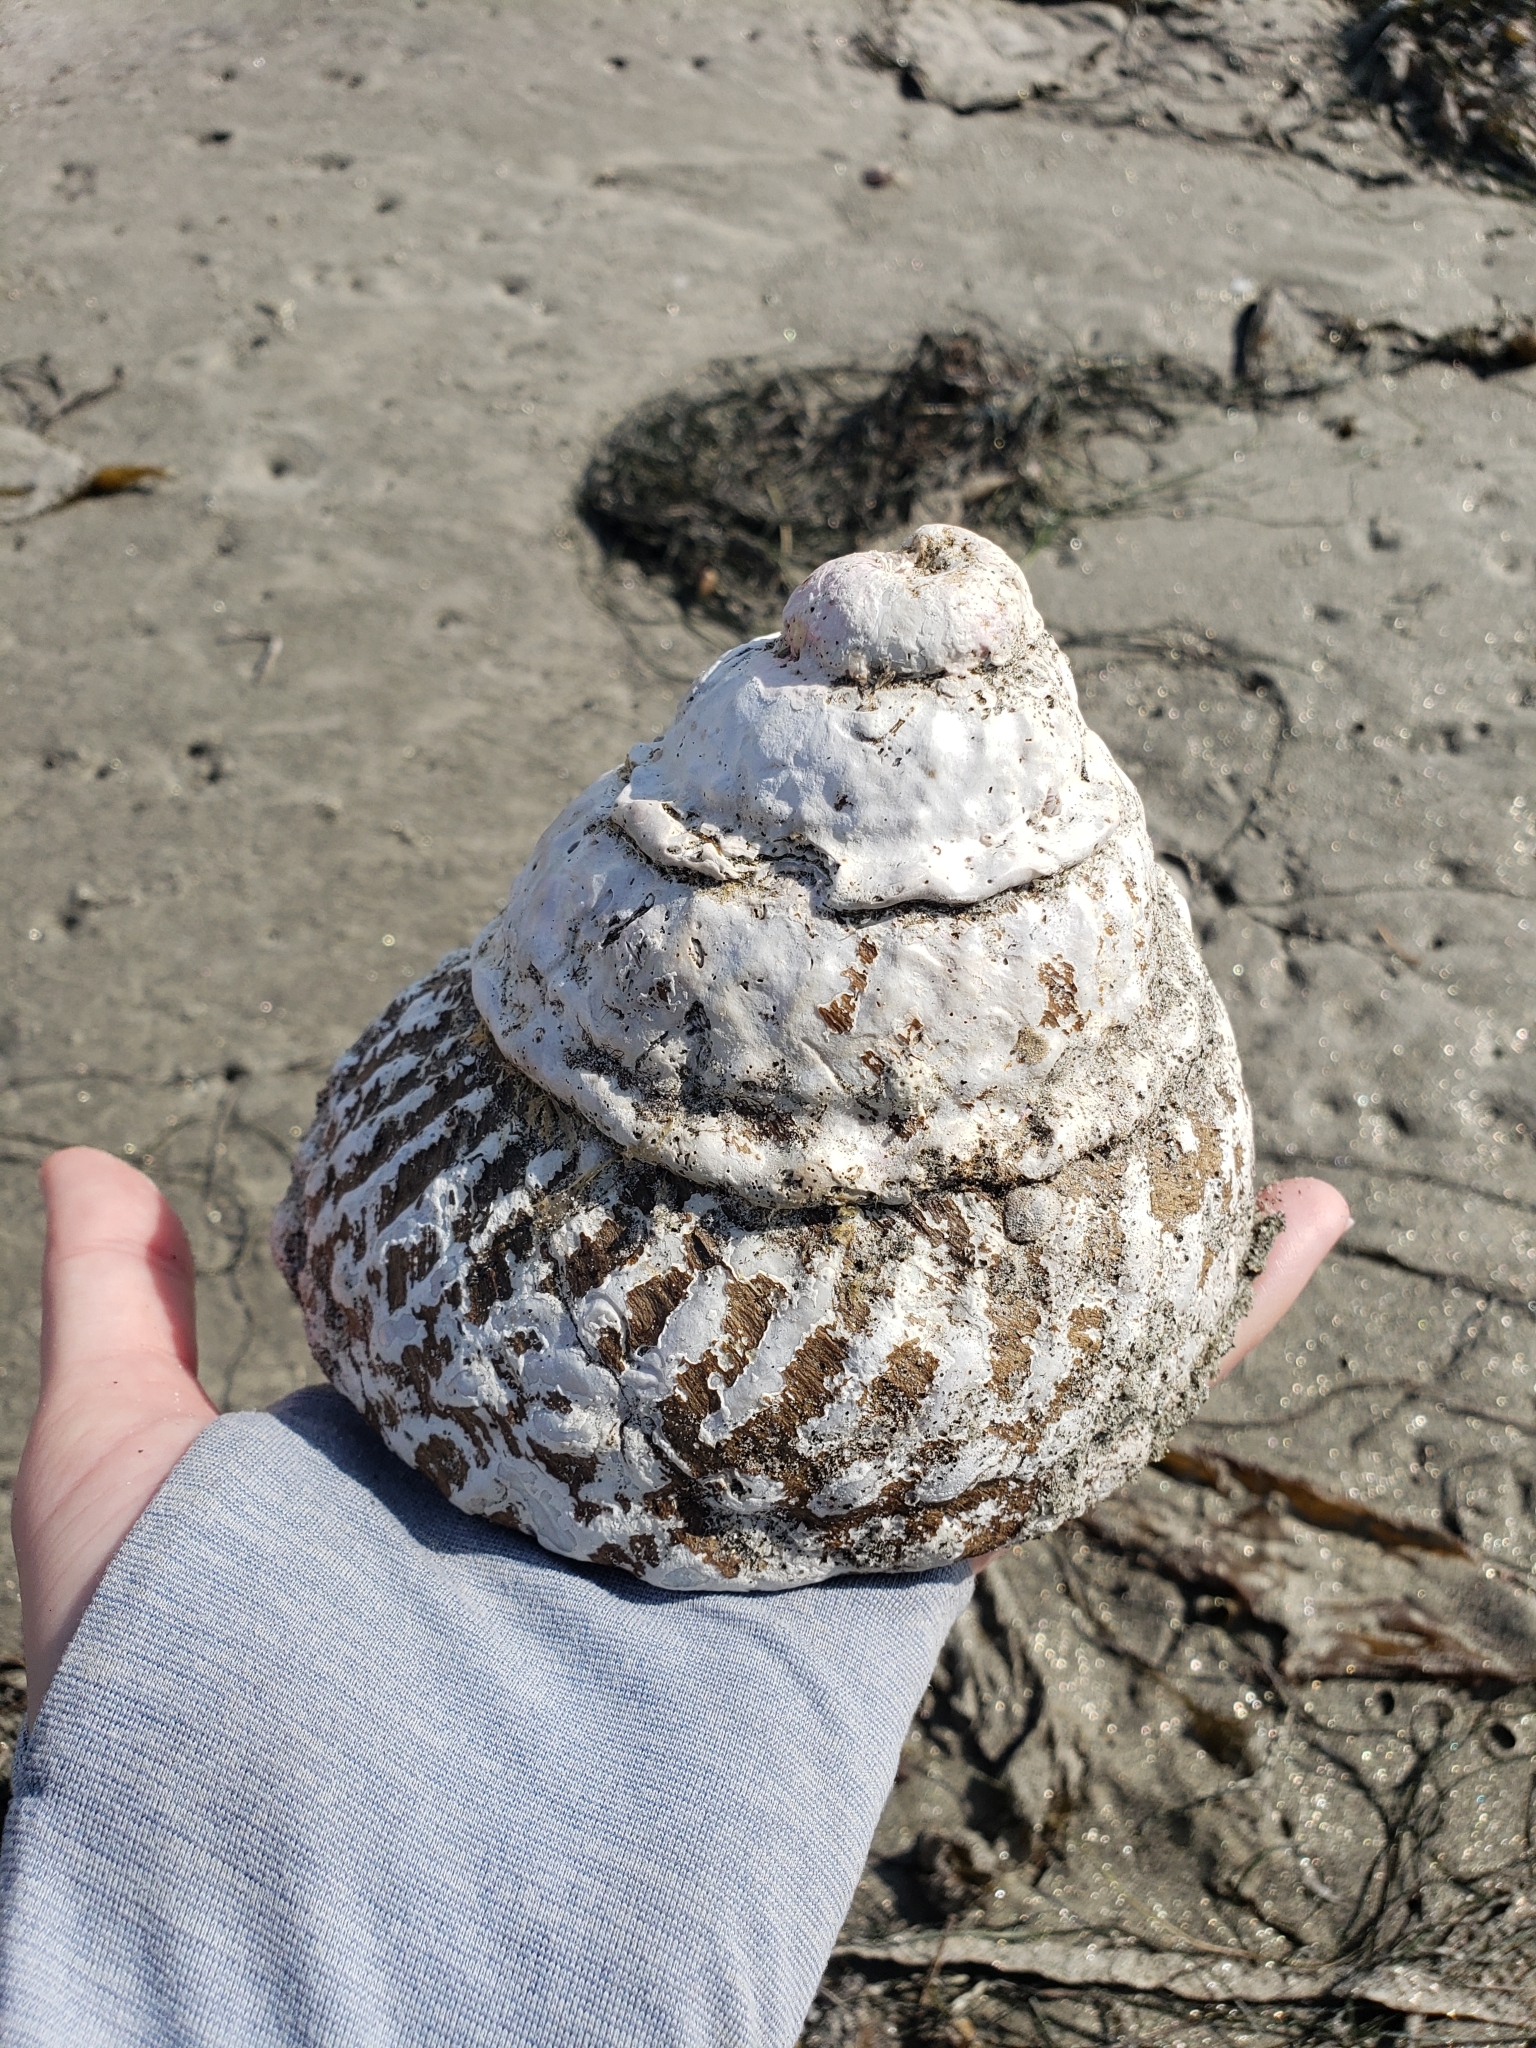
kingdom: Animalia
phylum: Mollusca
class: Gastropoda
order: Trochida
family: Turbinidae
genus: Megastraea
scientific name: Megastraea undosa
